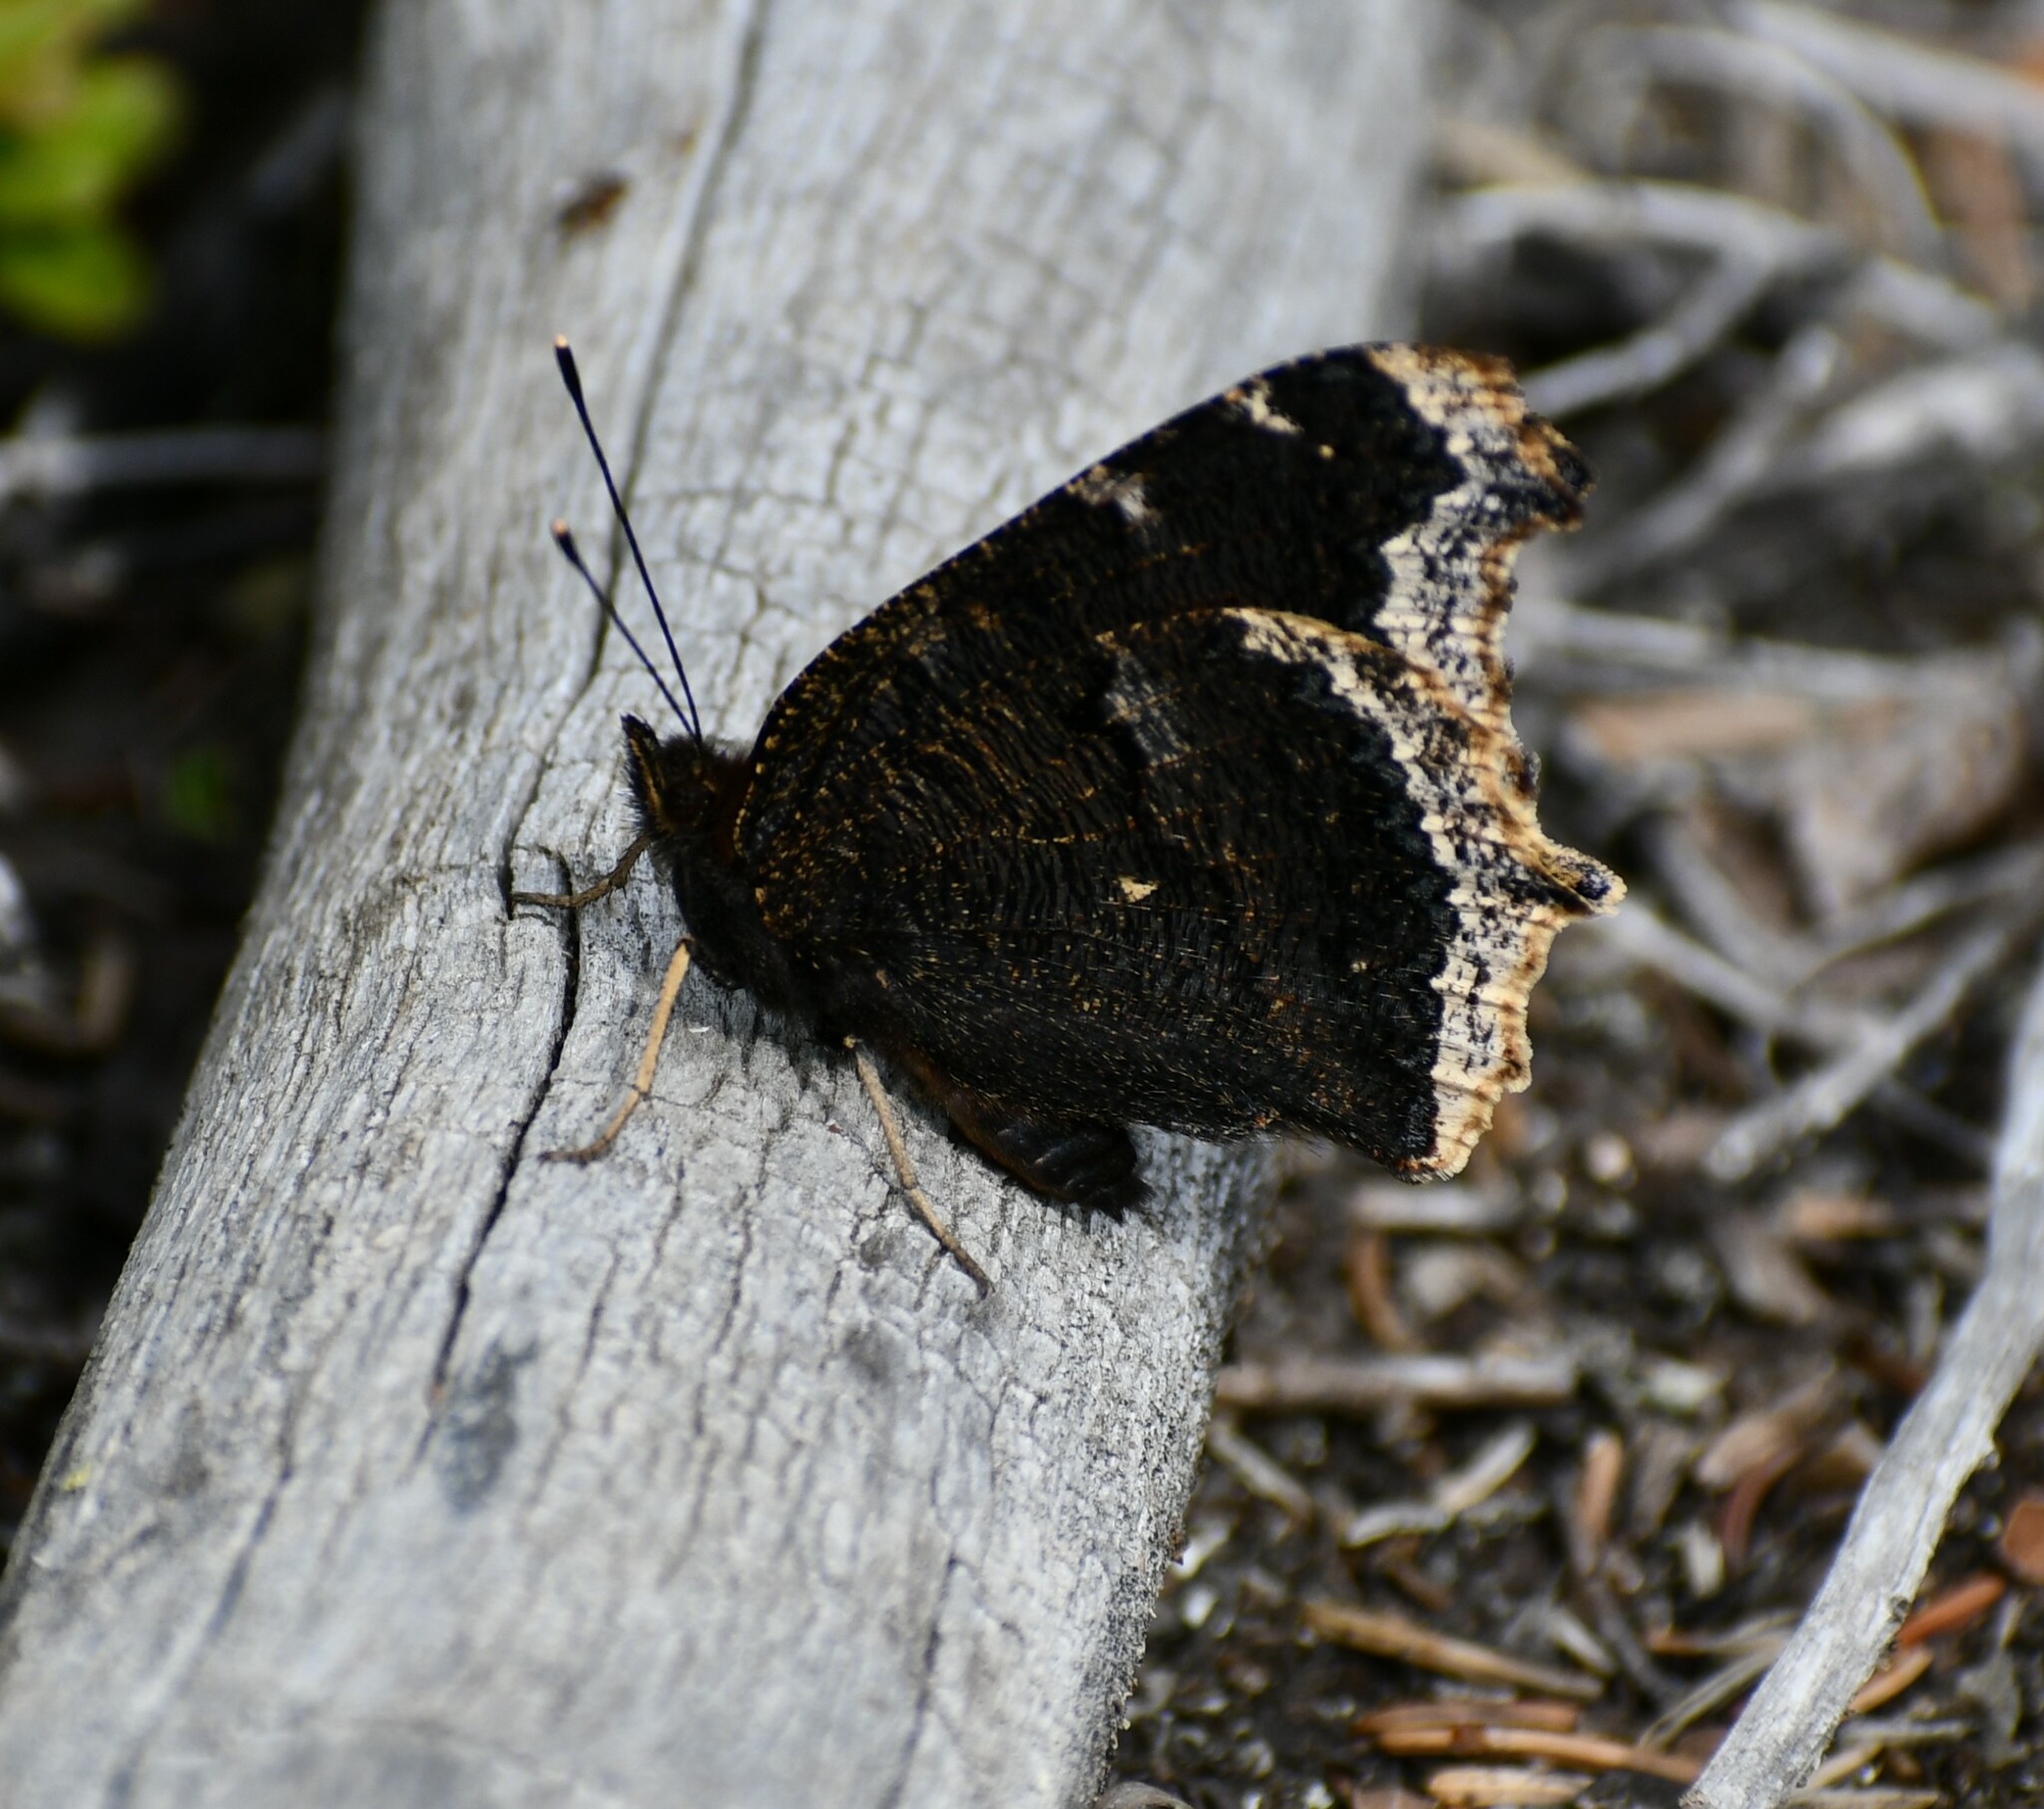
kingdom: Animalia
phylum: Arthropoda
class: Insecta
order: Lepidoptera
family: Nymphalidae
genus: Nymphalis
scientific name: Nymphalis antiopa
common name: Camberwell beauty
